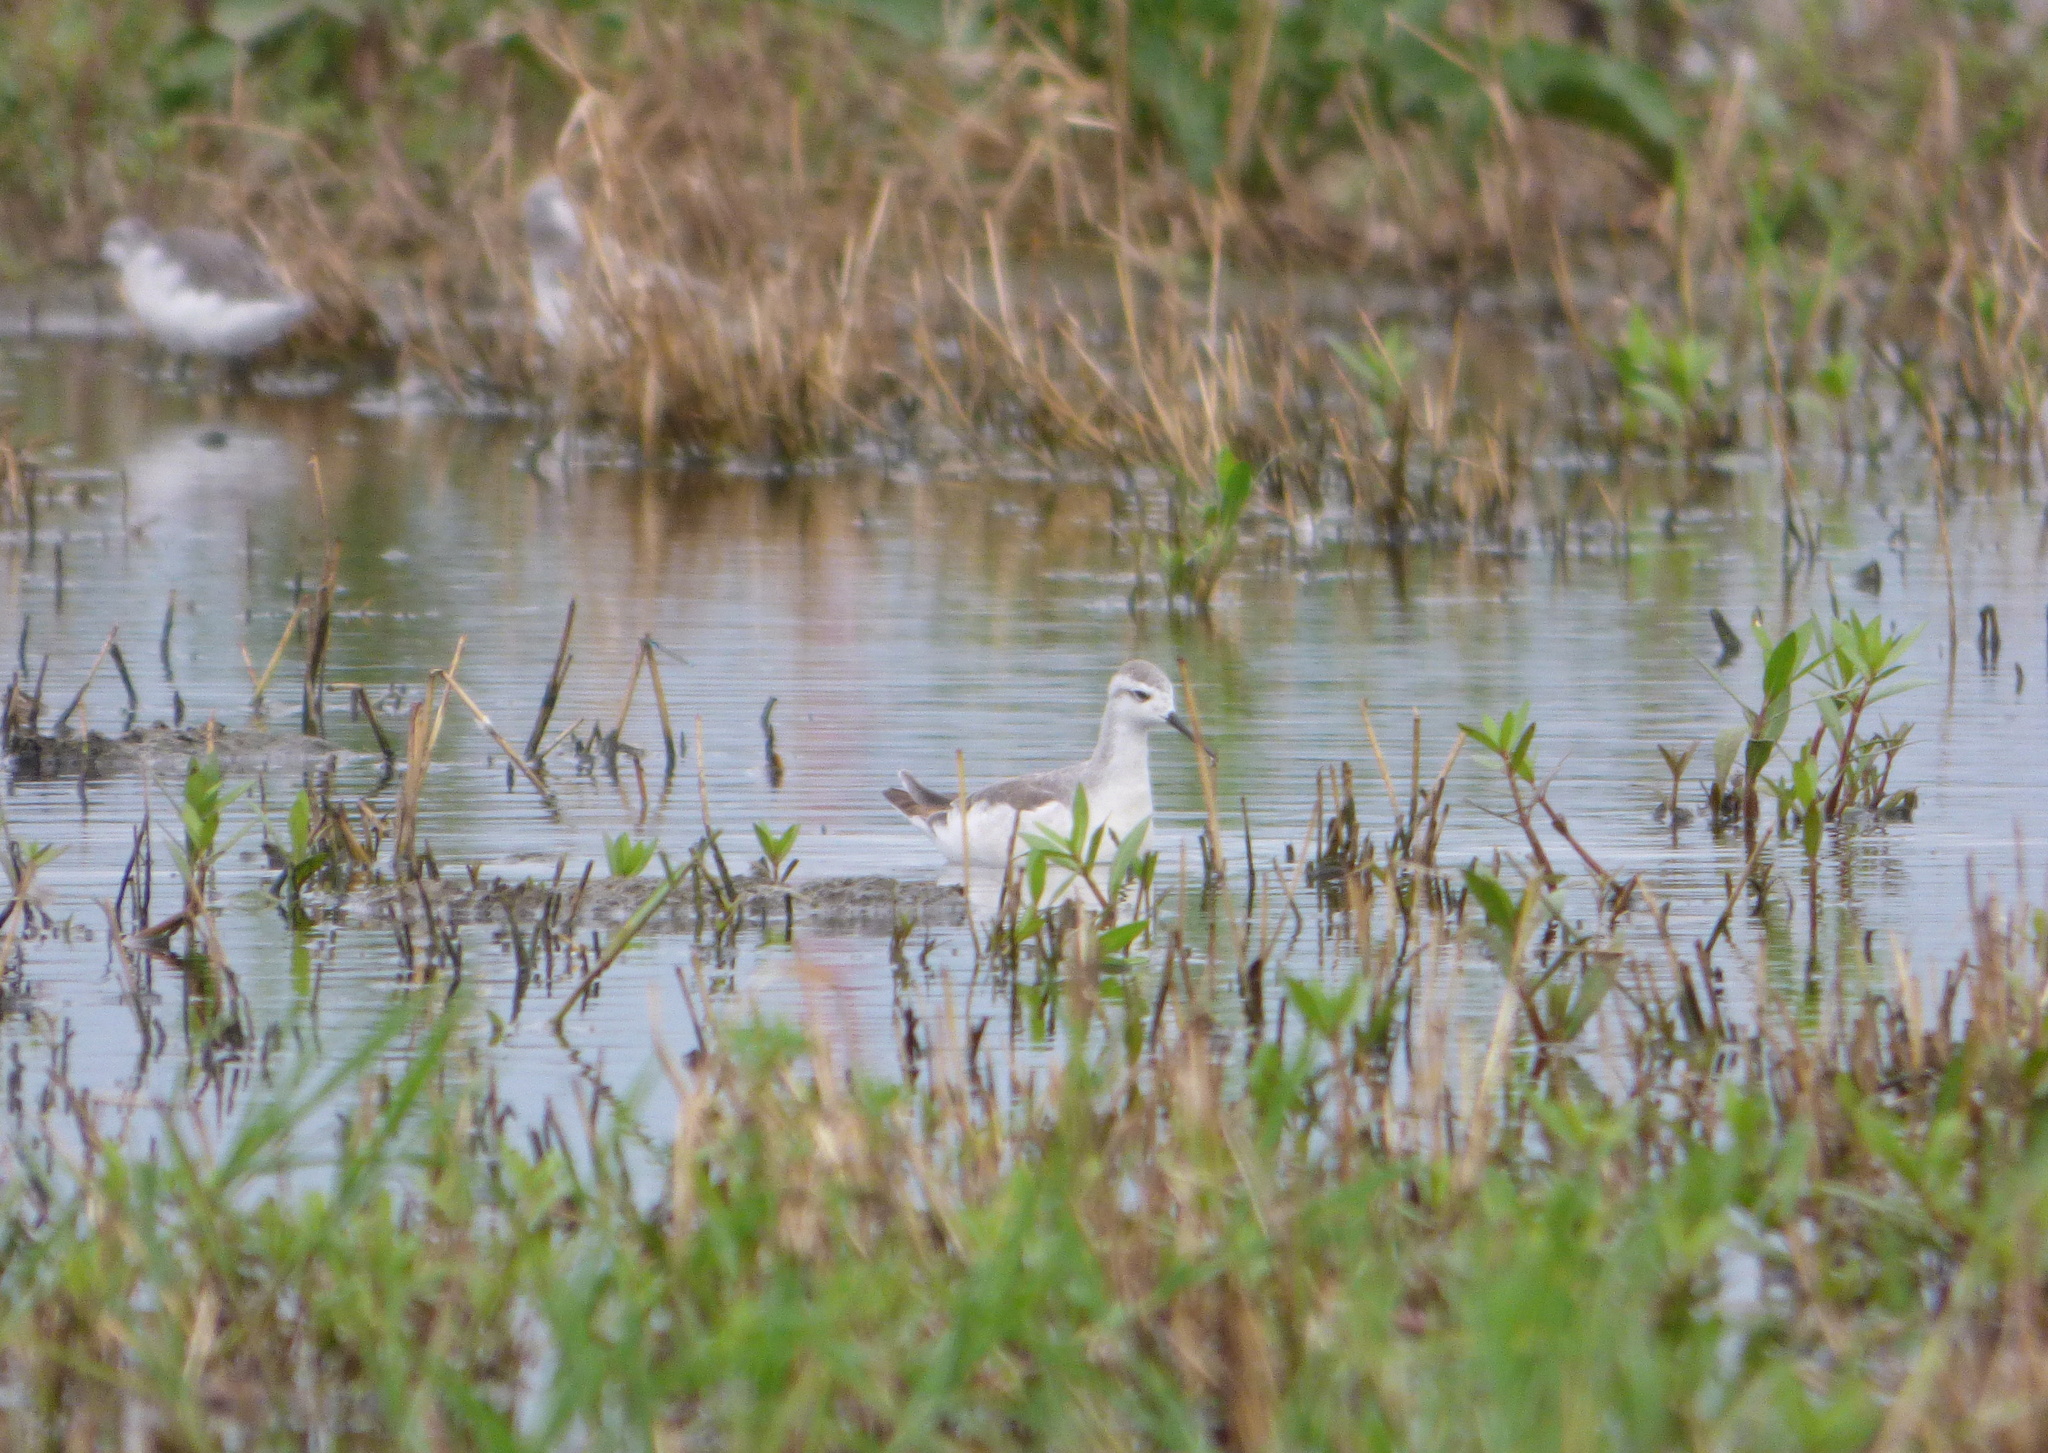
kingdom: Animalia
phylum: Chordata
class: Aves
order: Charadriiformes
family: Scolopacidae
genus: Phalaropus
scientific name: Phalaropus tricolor
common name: Wilson's phalarope
